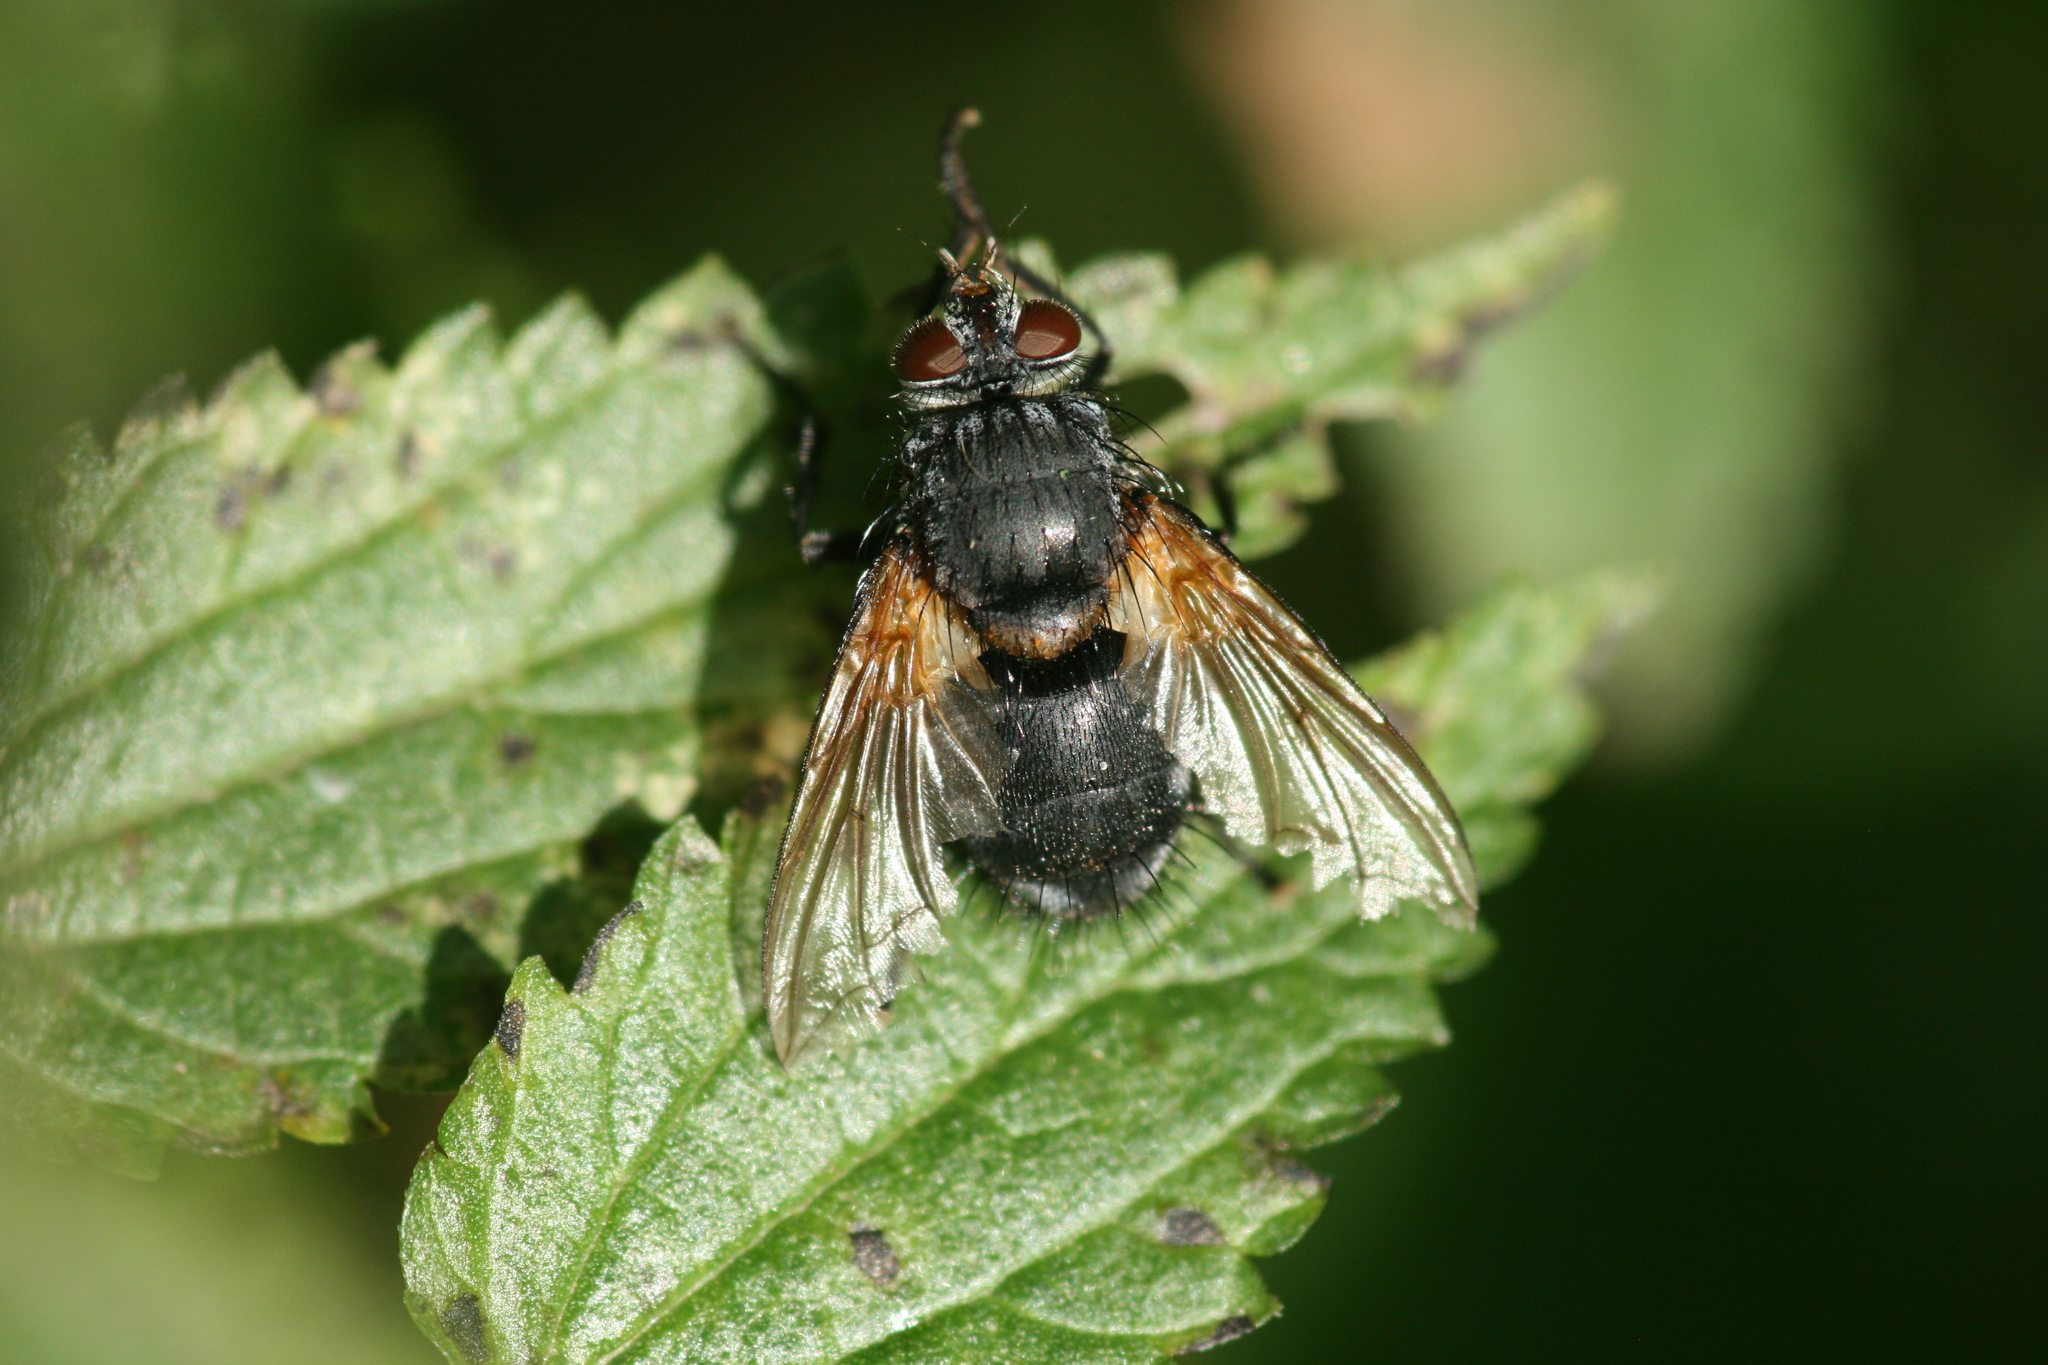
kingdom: Animalia
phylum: Arthropoda
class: Insecta
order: Diptera
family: Tachinidae
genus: Nemoraea
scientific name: Nemoraea pellucida
